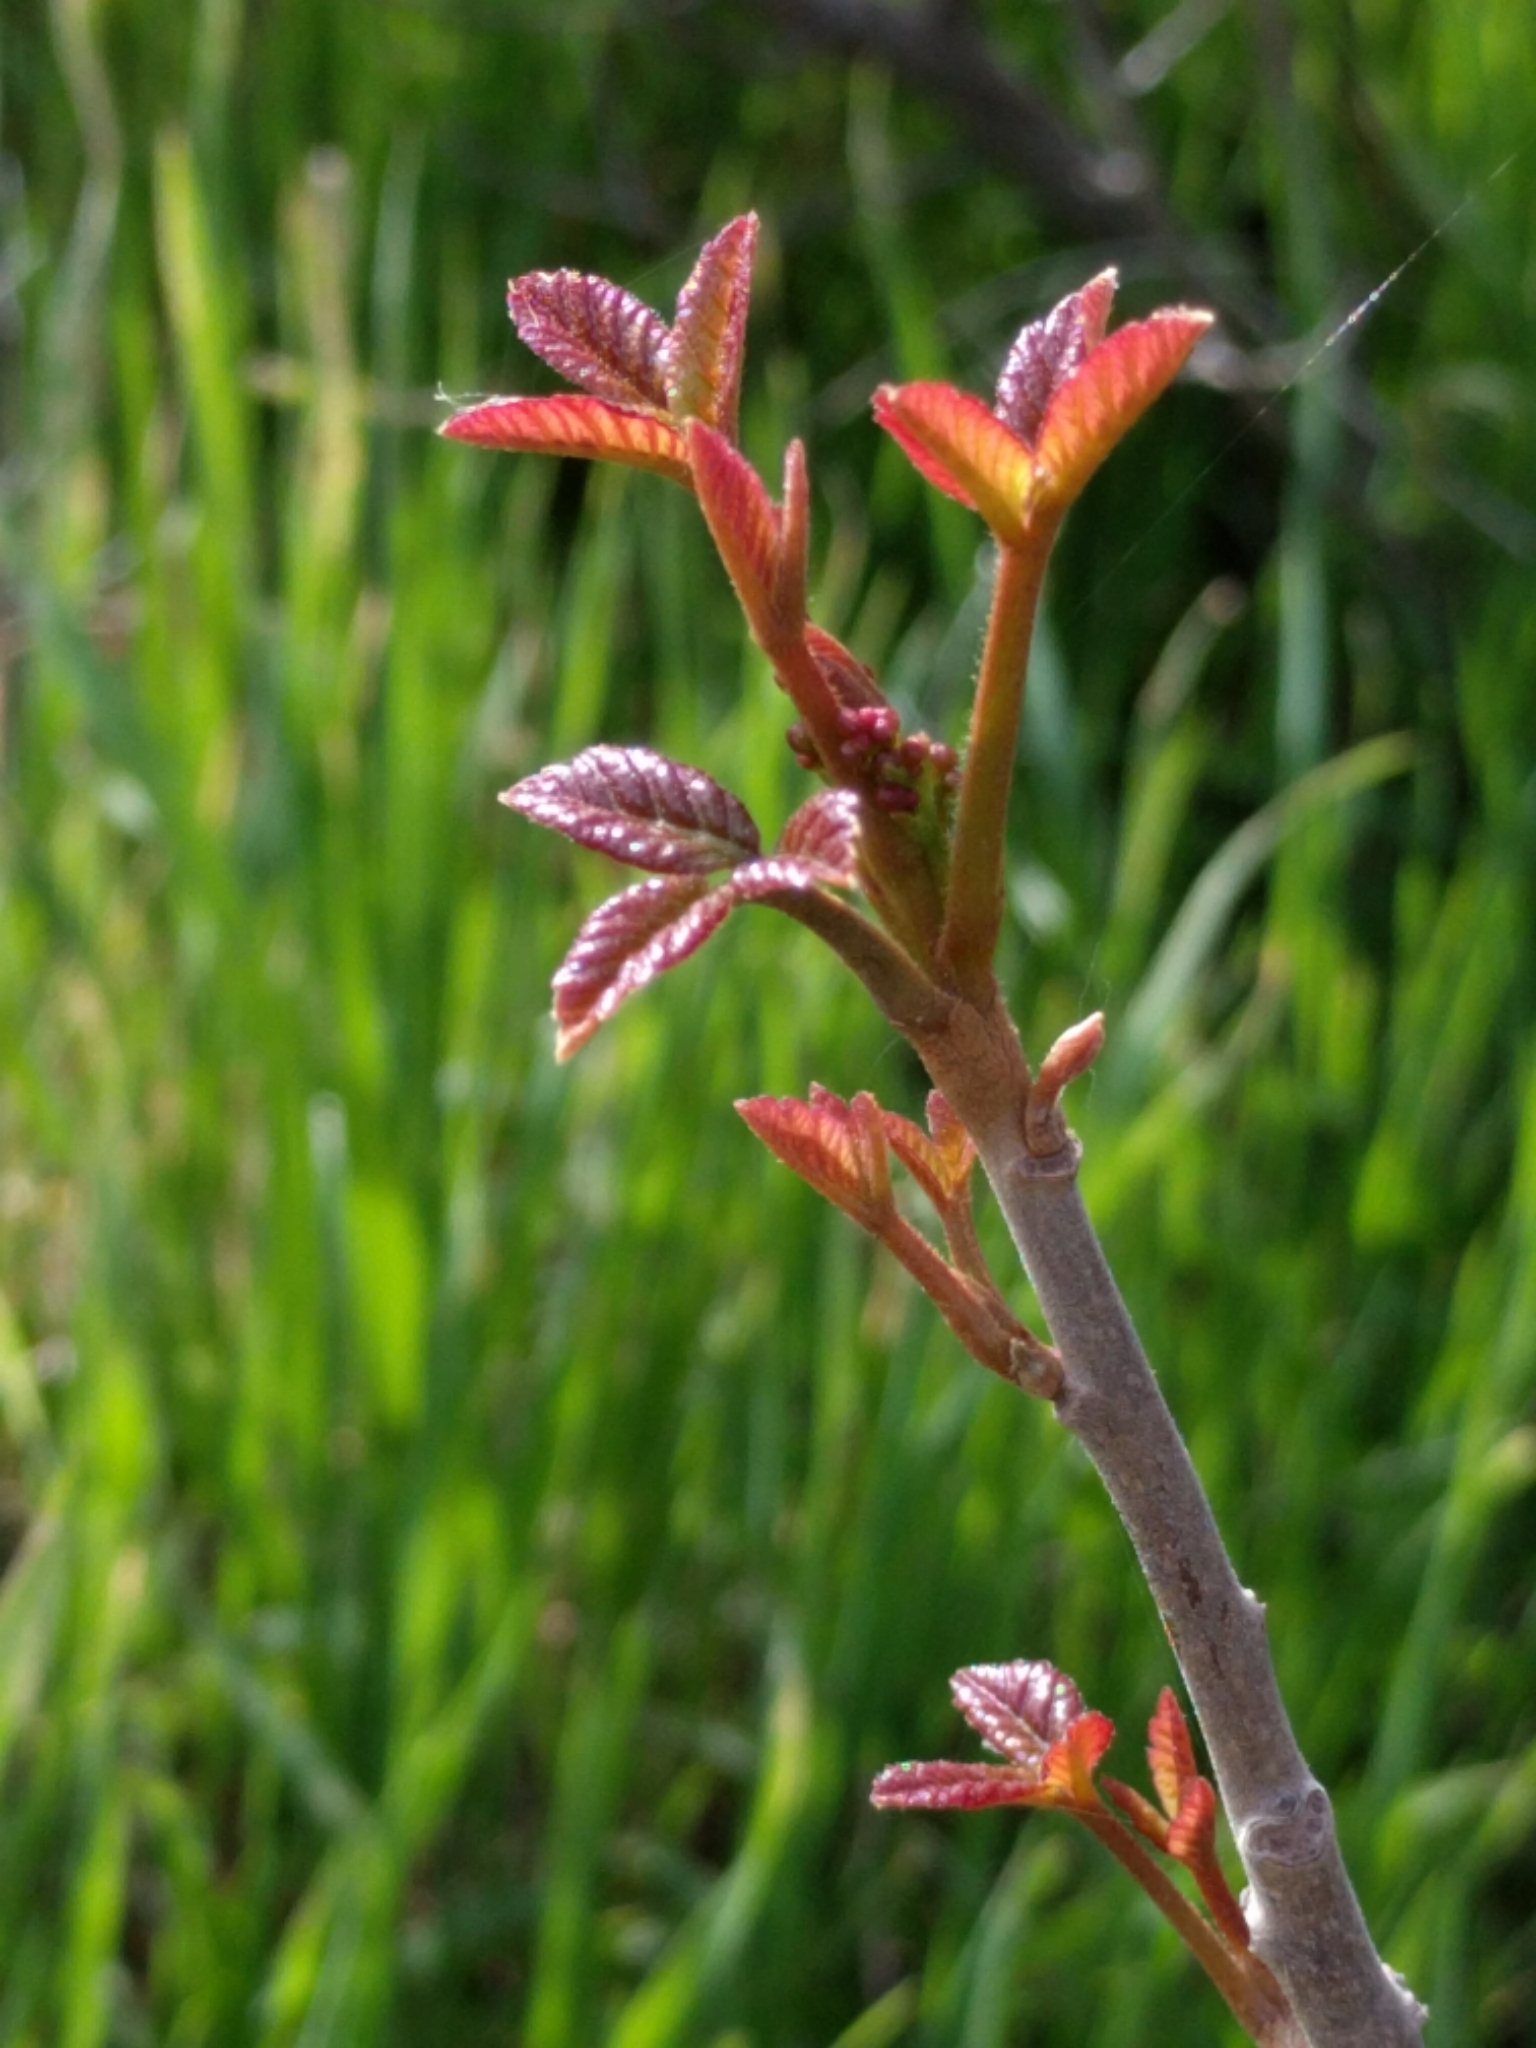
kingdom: Plantae
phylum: Tracheophyta
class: Magnoliopsida
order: Sapindales
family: Anacardiaceae
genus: Toxicodendron
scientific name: Toxicodendron diversilobum
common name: Pacific poison-oak
